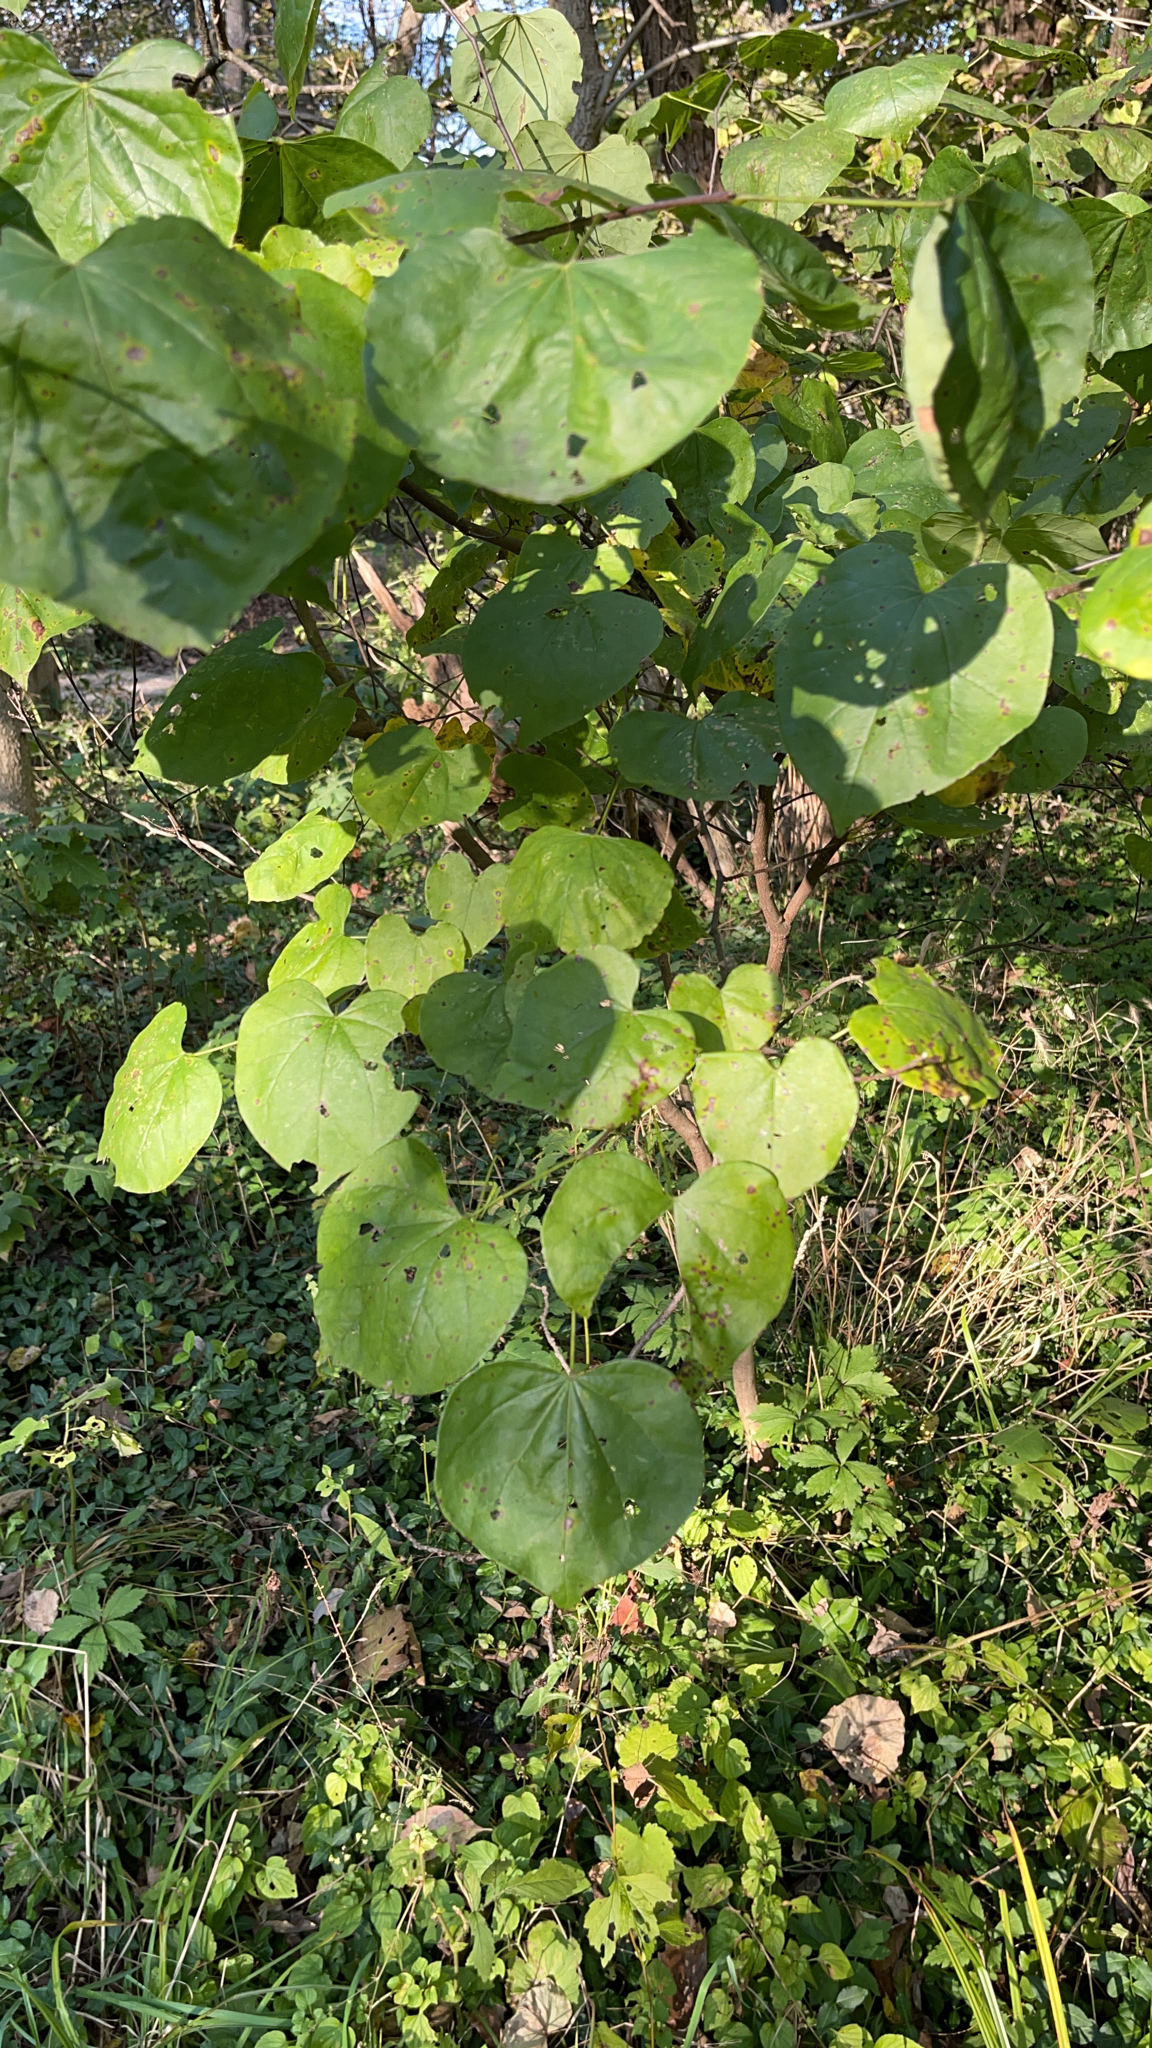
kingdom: Plantae
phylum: Tracheophyta
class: Magnoliopsida
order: Fabales
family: Fabaceae
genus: Cercis
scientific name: Cercis canadensis
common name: Eastern redbud
